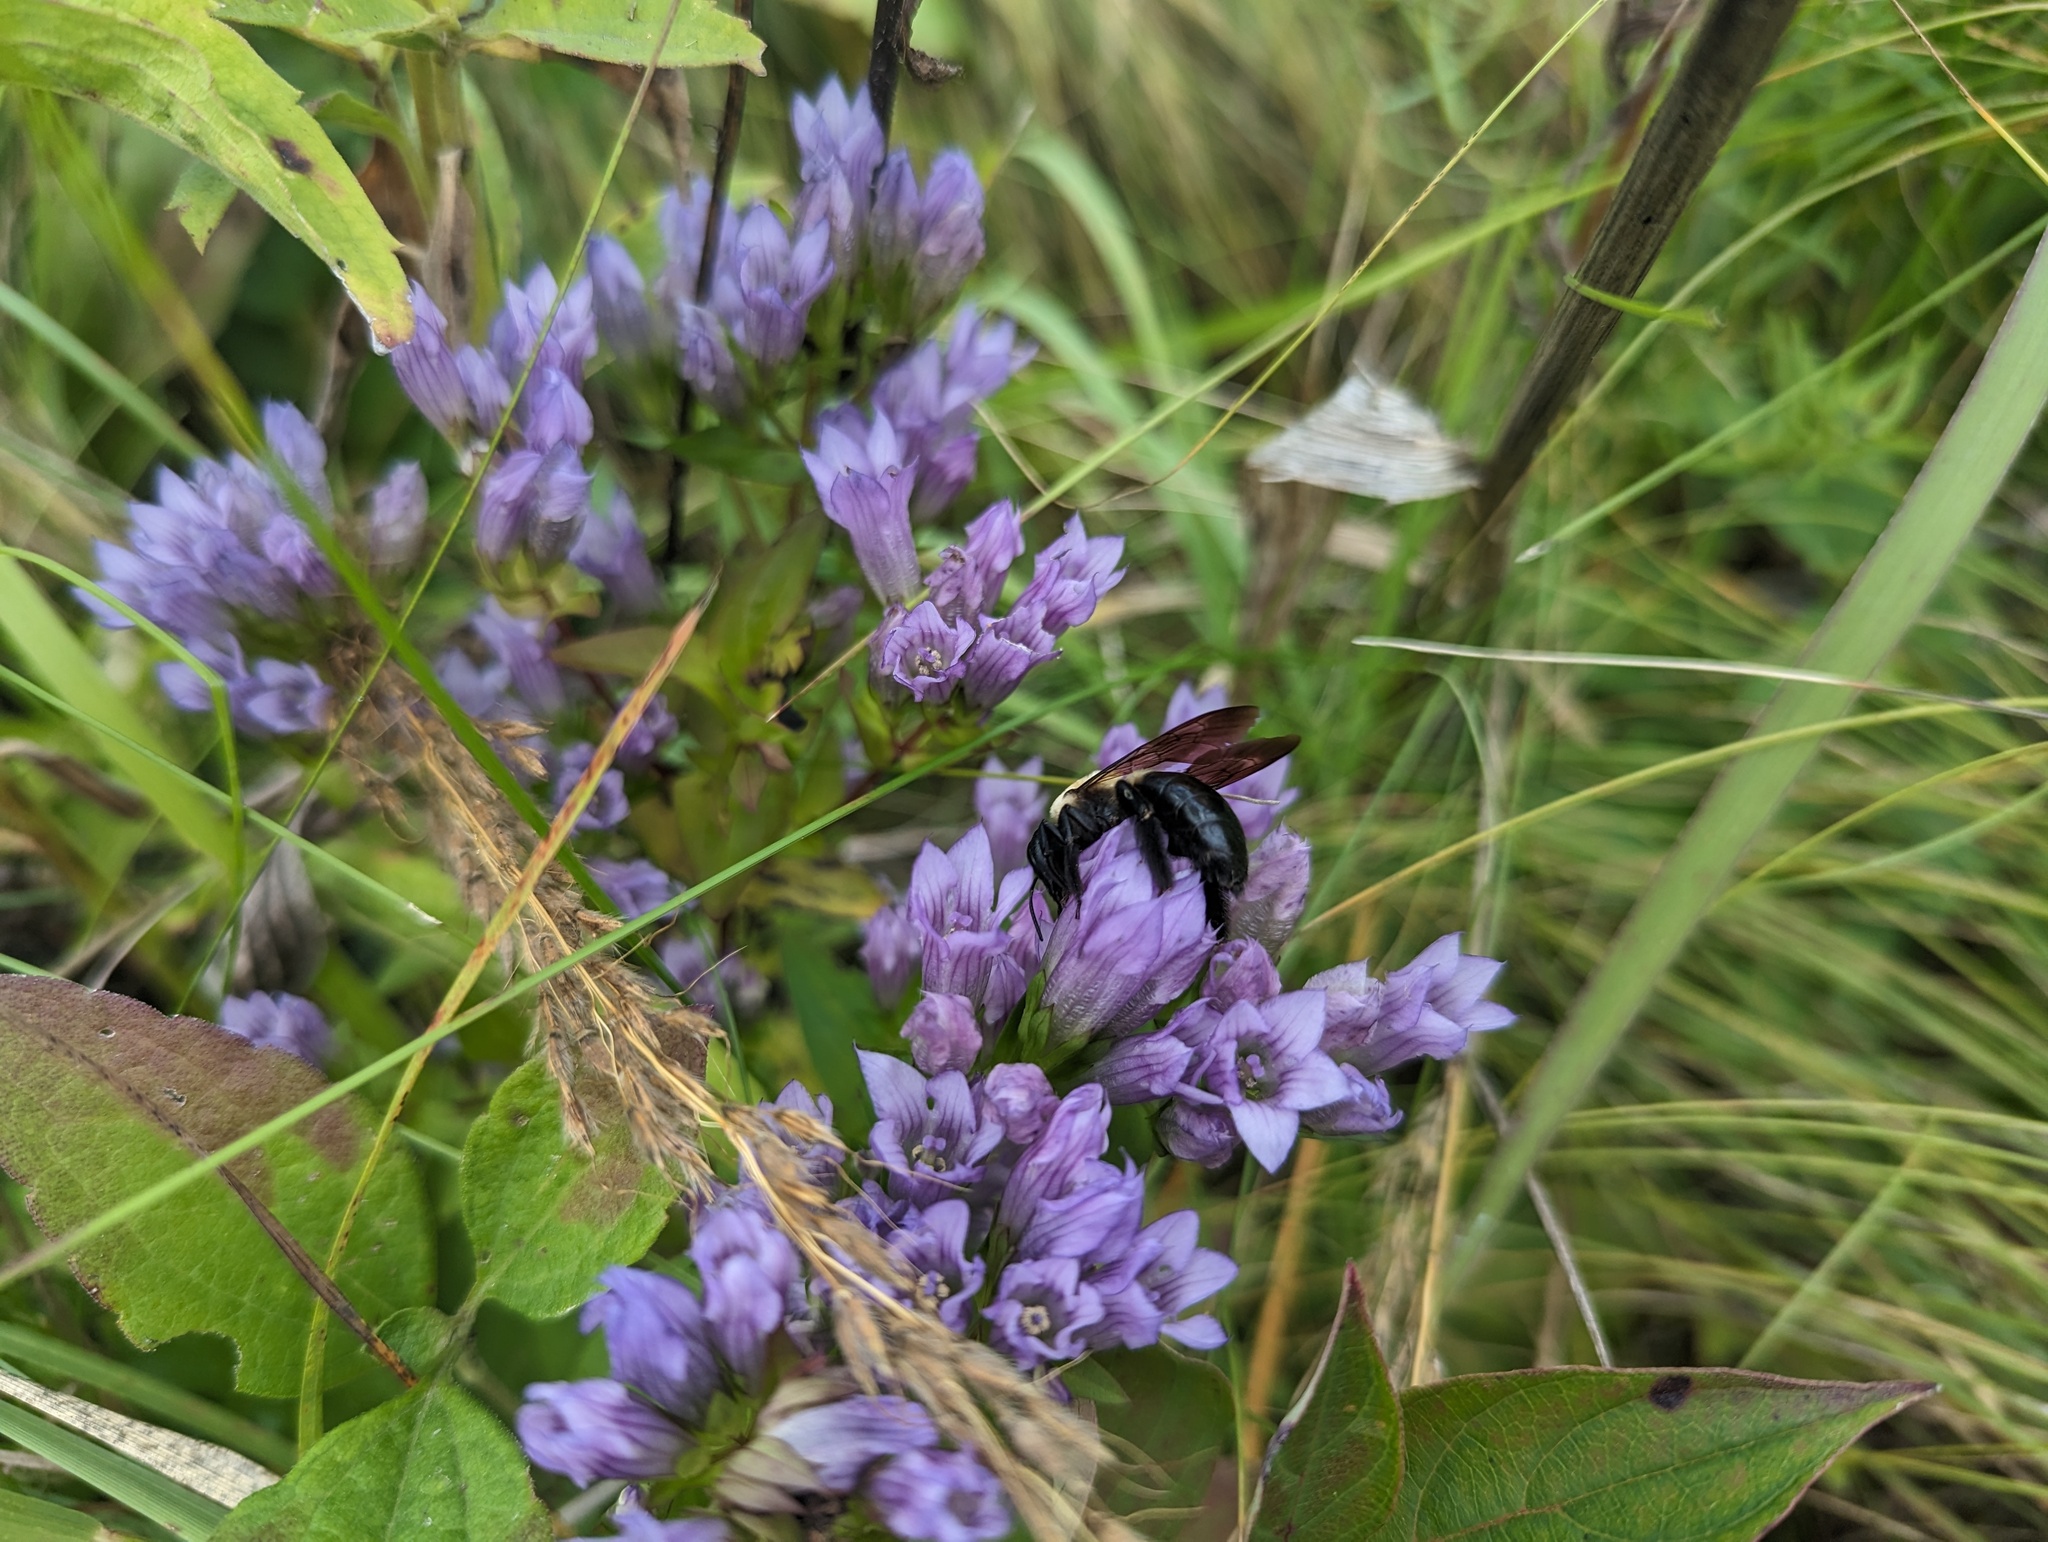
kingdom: Animalia
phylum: Arthropoda
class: Insecta
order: Hymenoptera
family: Apidae
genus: Xylocopa
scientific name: Xylocopa virginica
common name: Carpenter bee
